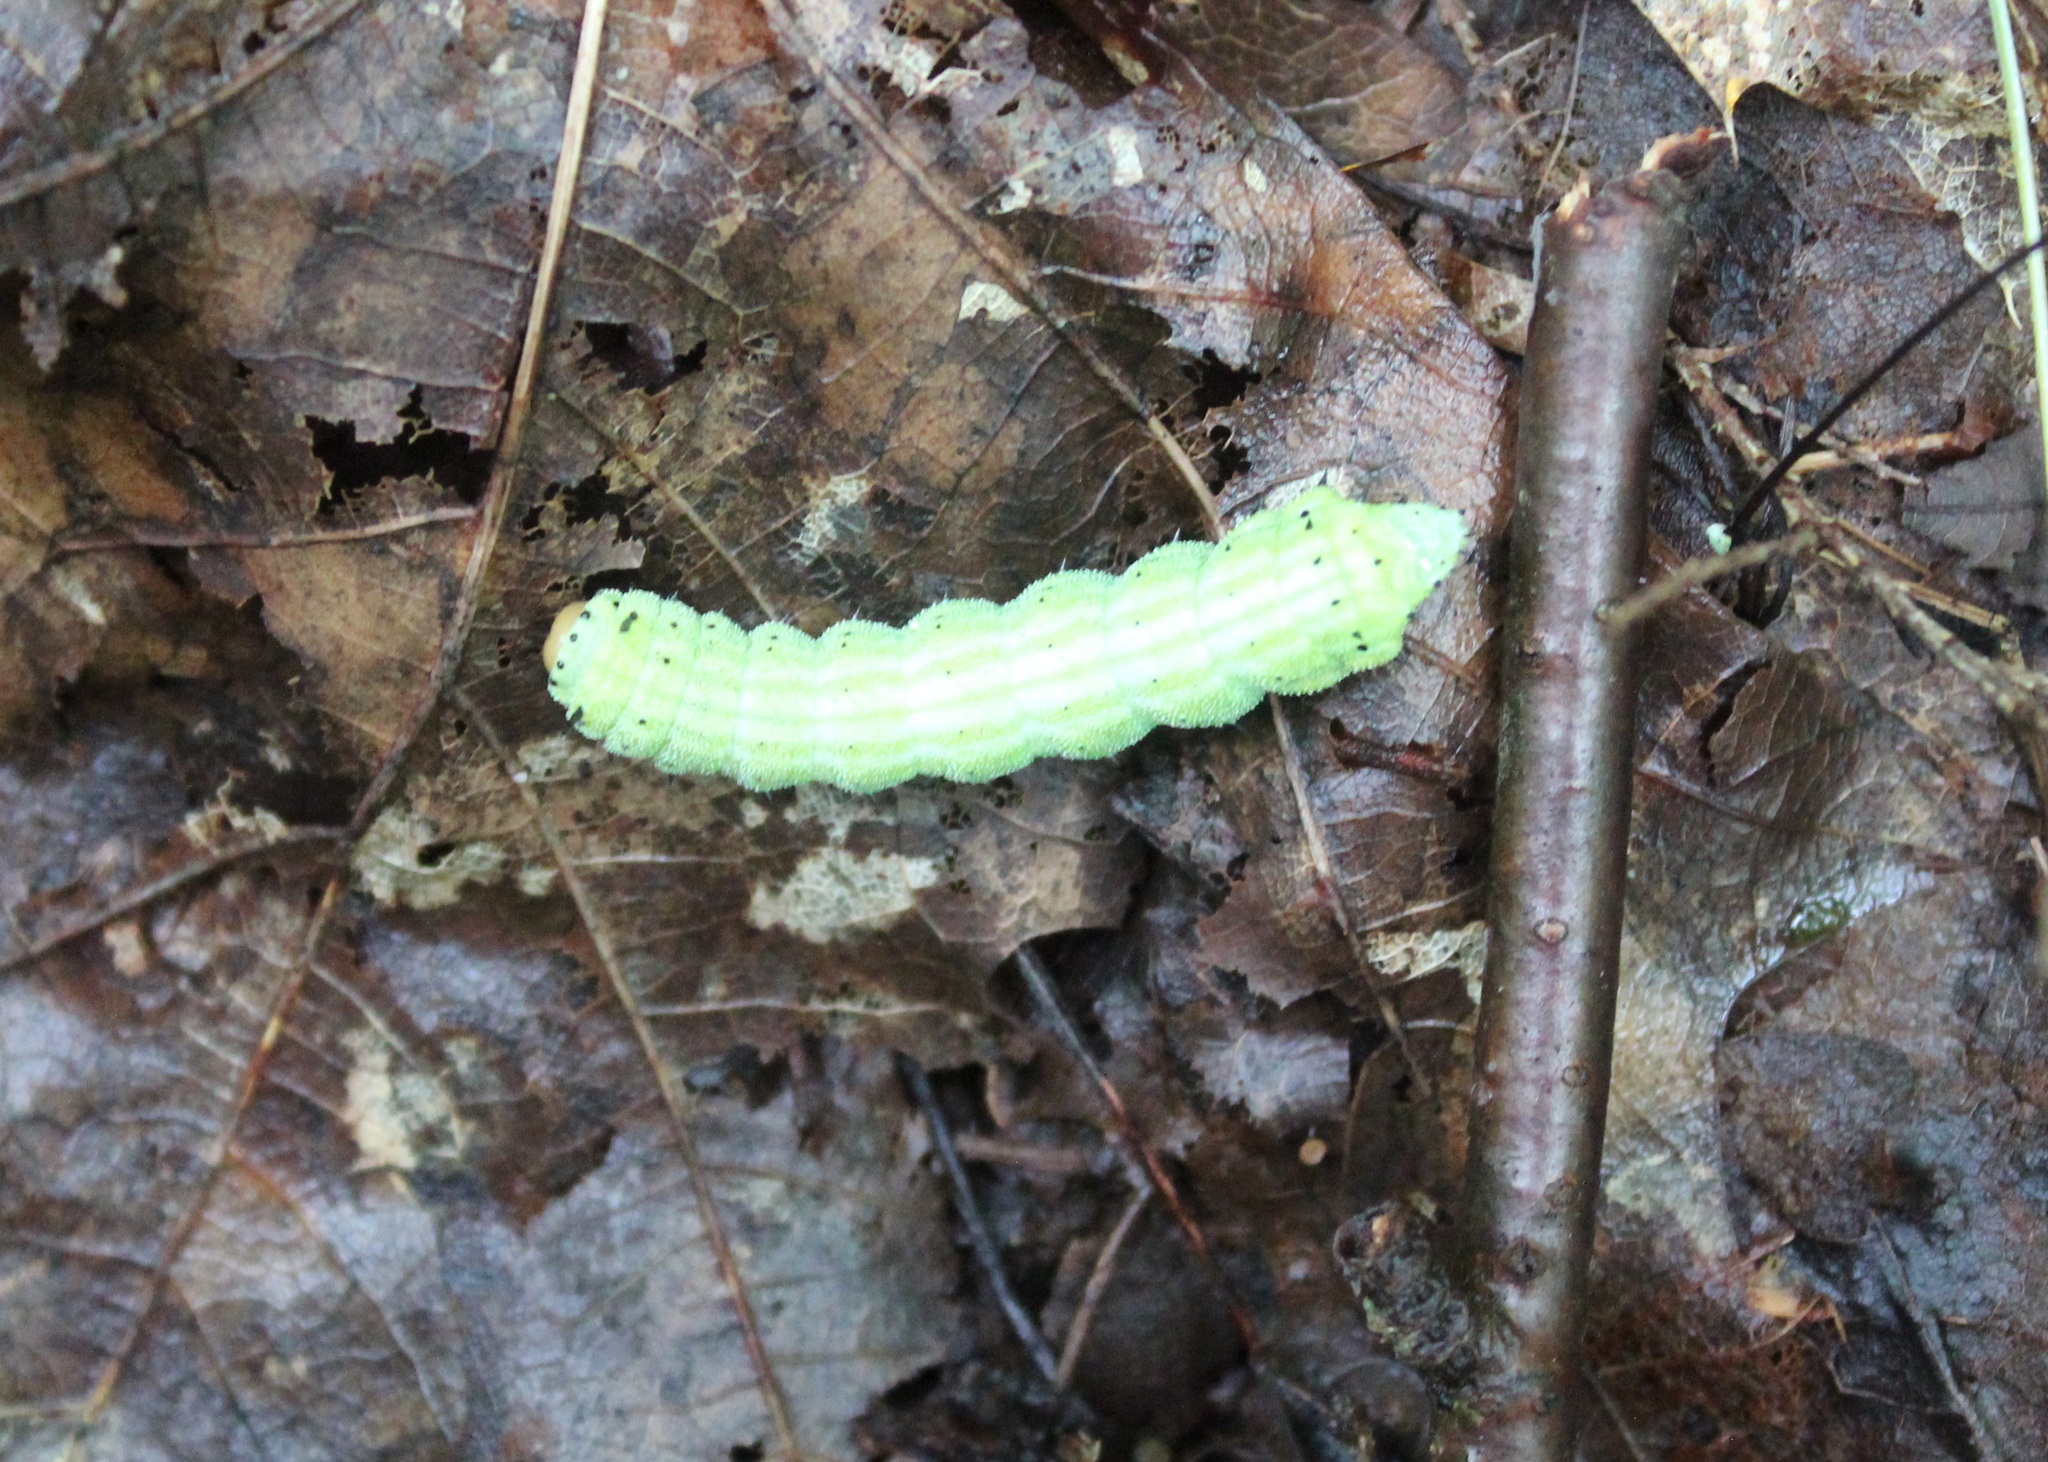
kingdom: Animalia
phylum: Arthropoda
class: Insecta
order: Lepidoptera
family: Saturniidae
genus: Dryocampa
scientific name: Dryocampa rubicunda
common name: Rosy maple moth
